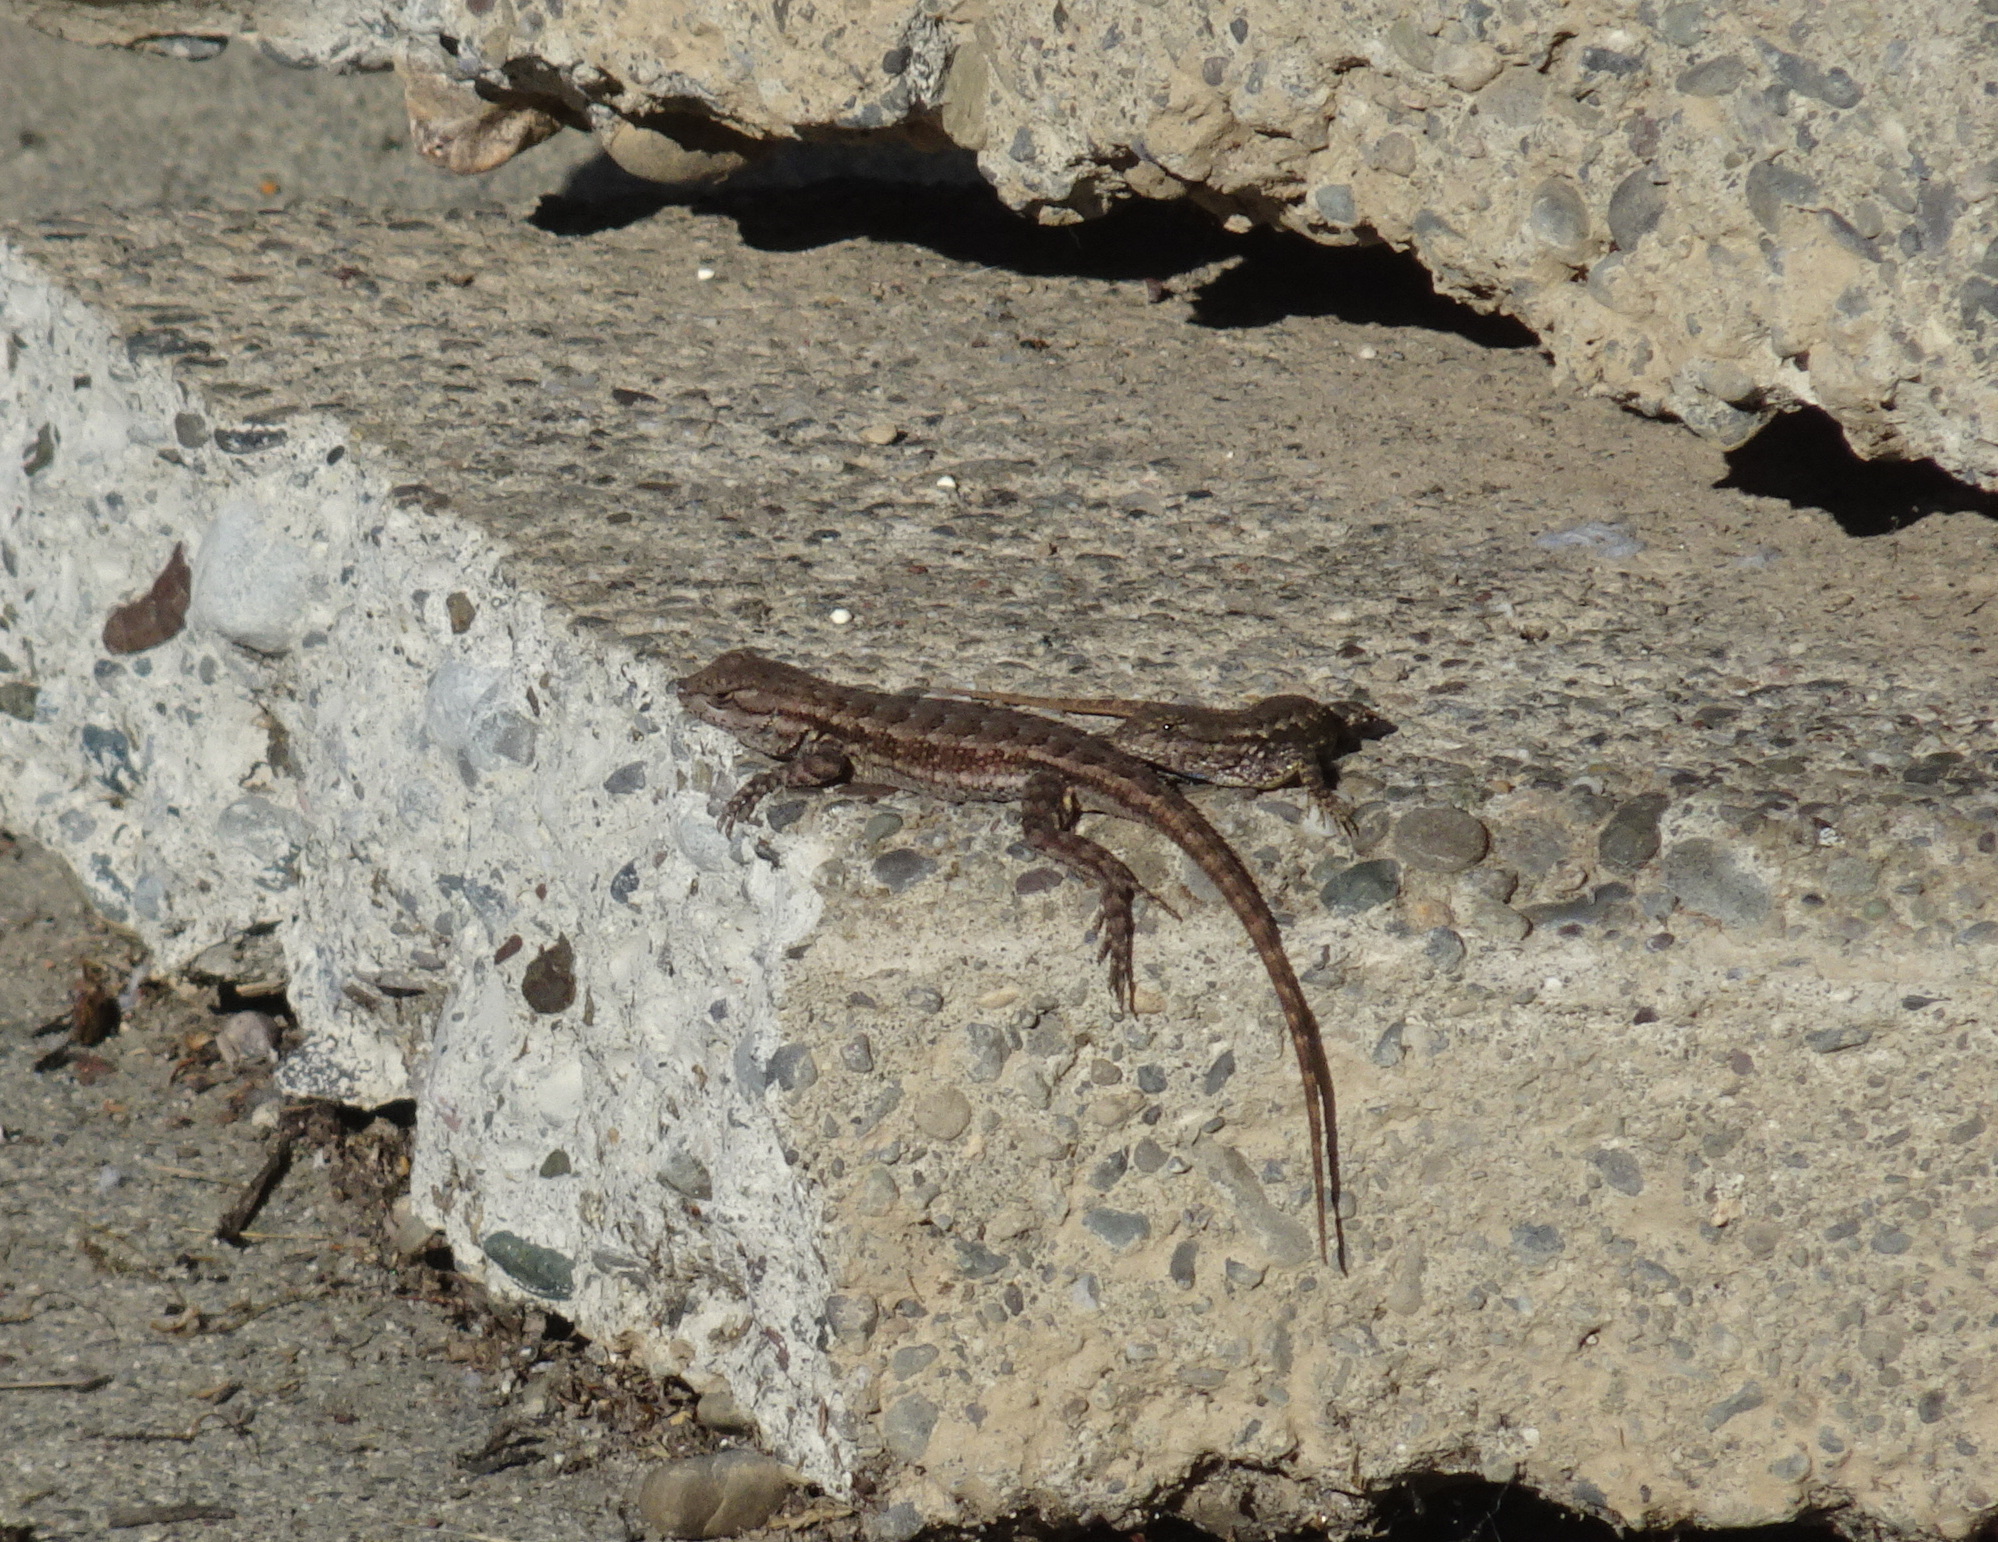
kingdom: Animalia
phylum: Chordata
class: Squamata
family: Phrynosomatidae
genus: Sceloporus
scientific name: Sceloporus occidentalis
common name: Western fence lizard
